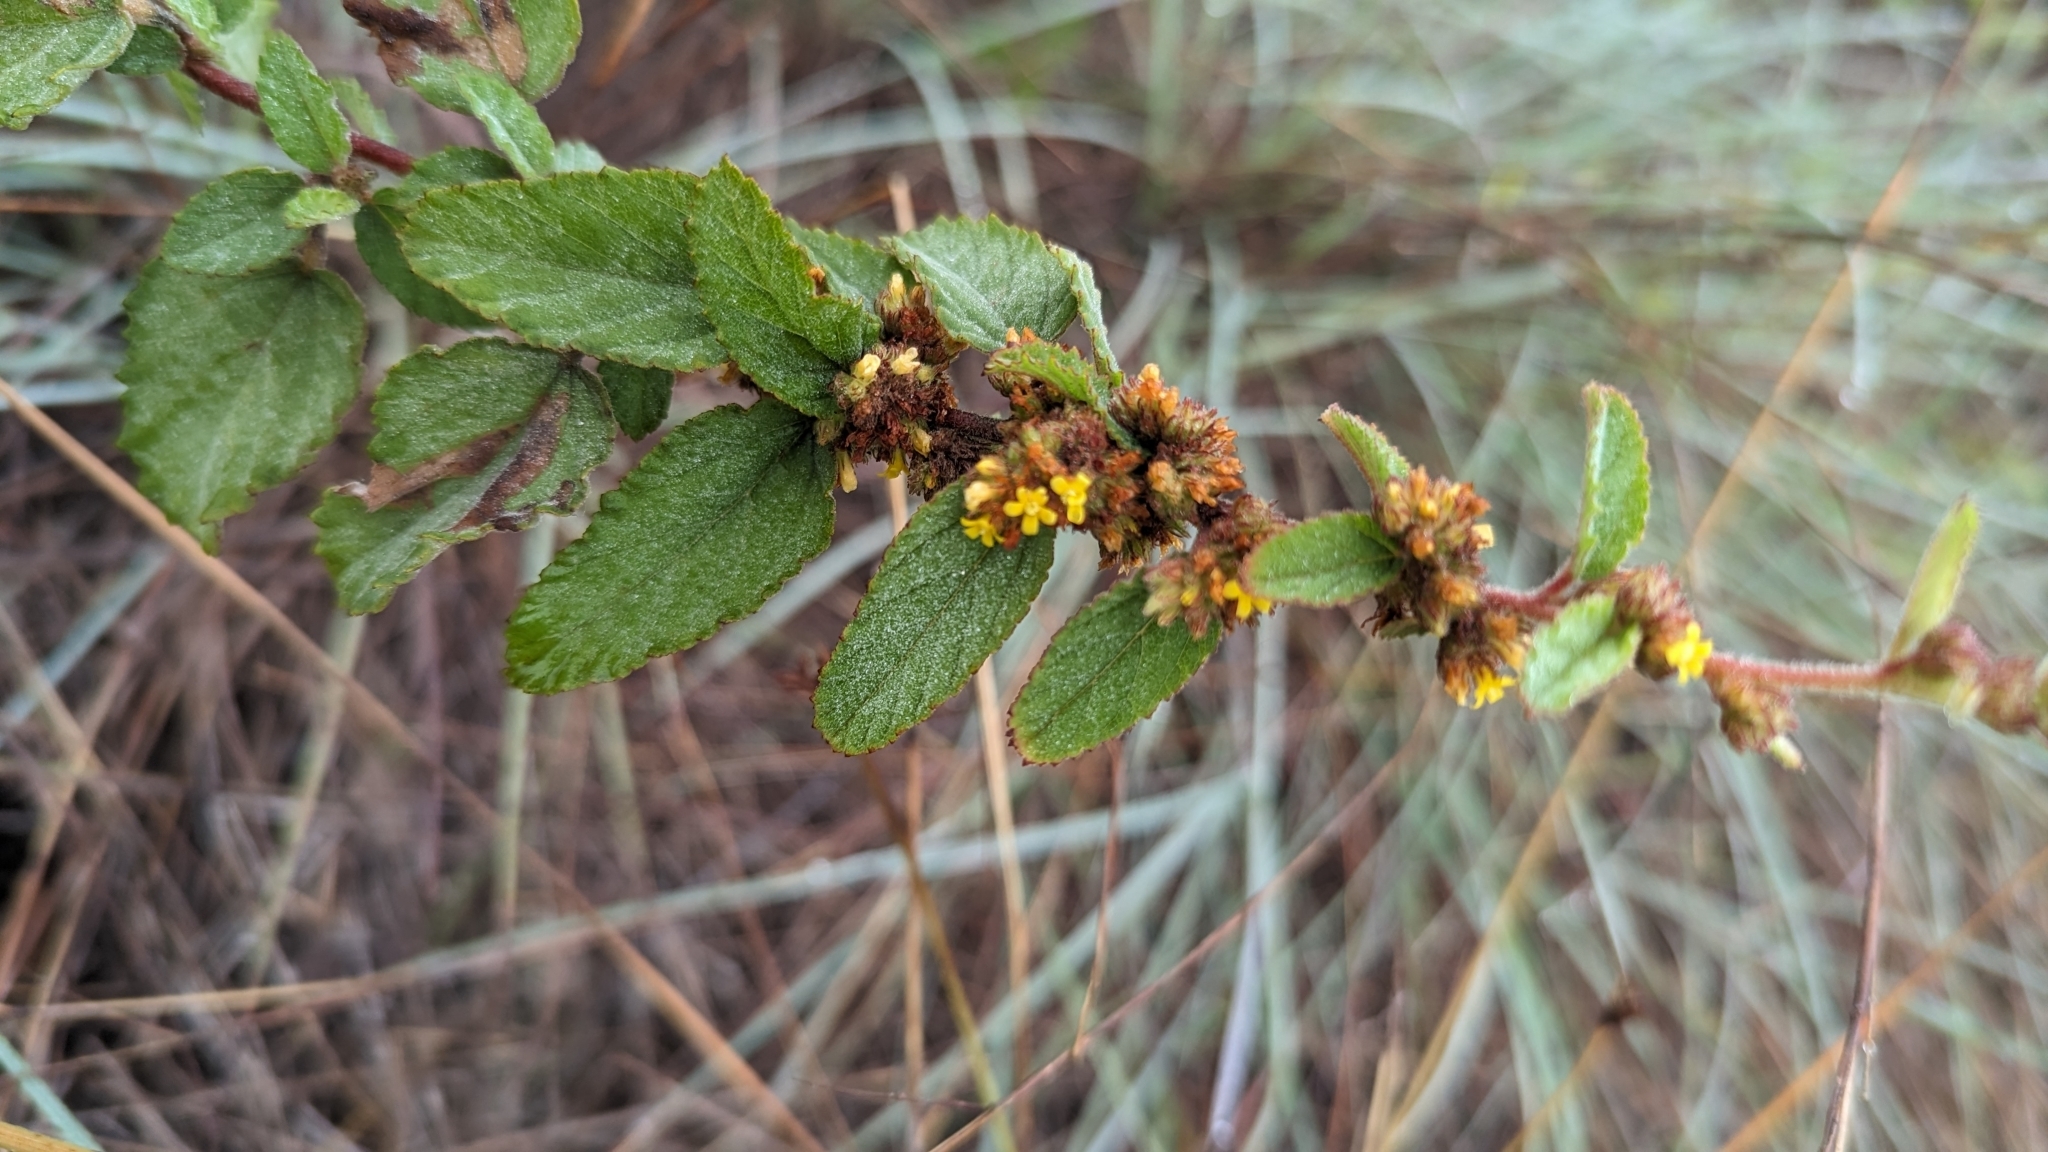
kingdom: Plantae
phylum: Tracheophyta
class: Magnoliopsida
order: Malvales
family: Malvaceae
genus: Waltheria
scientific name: Waltheria indica
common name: Leather-coat
